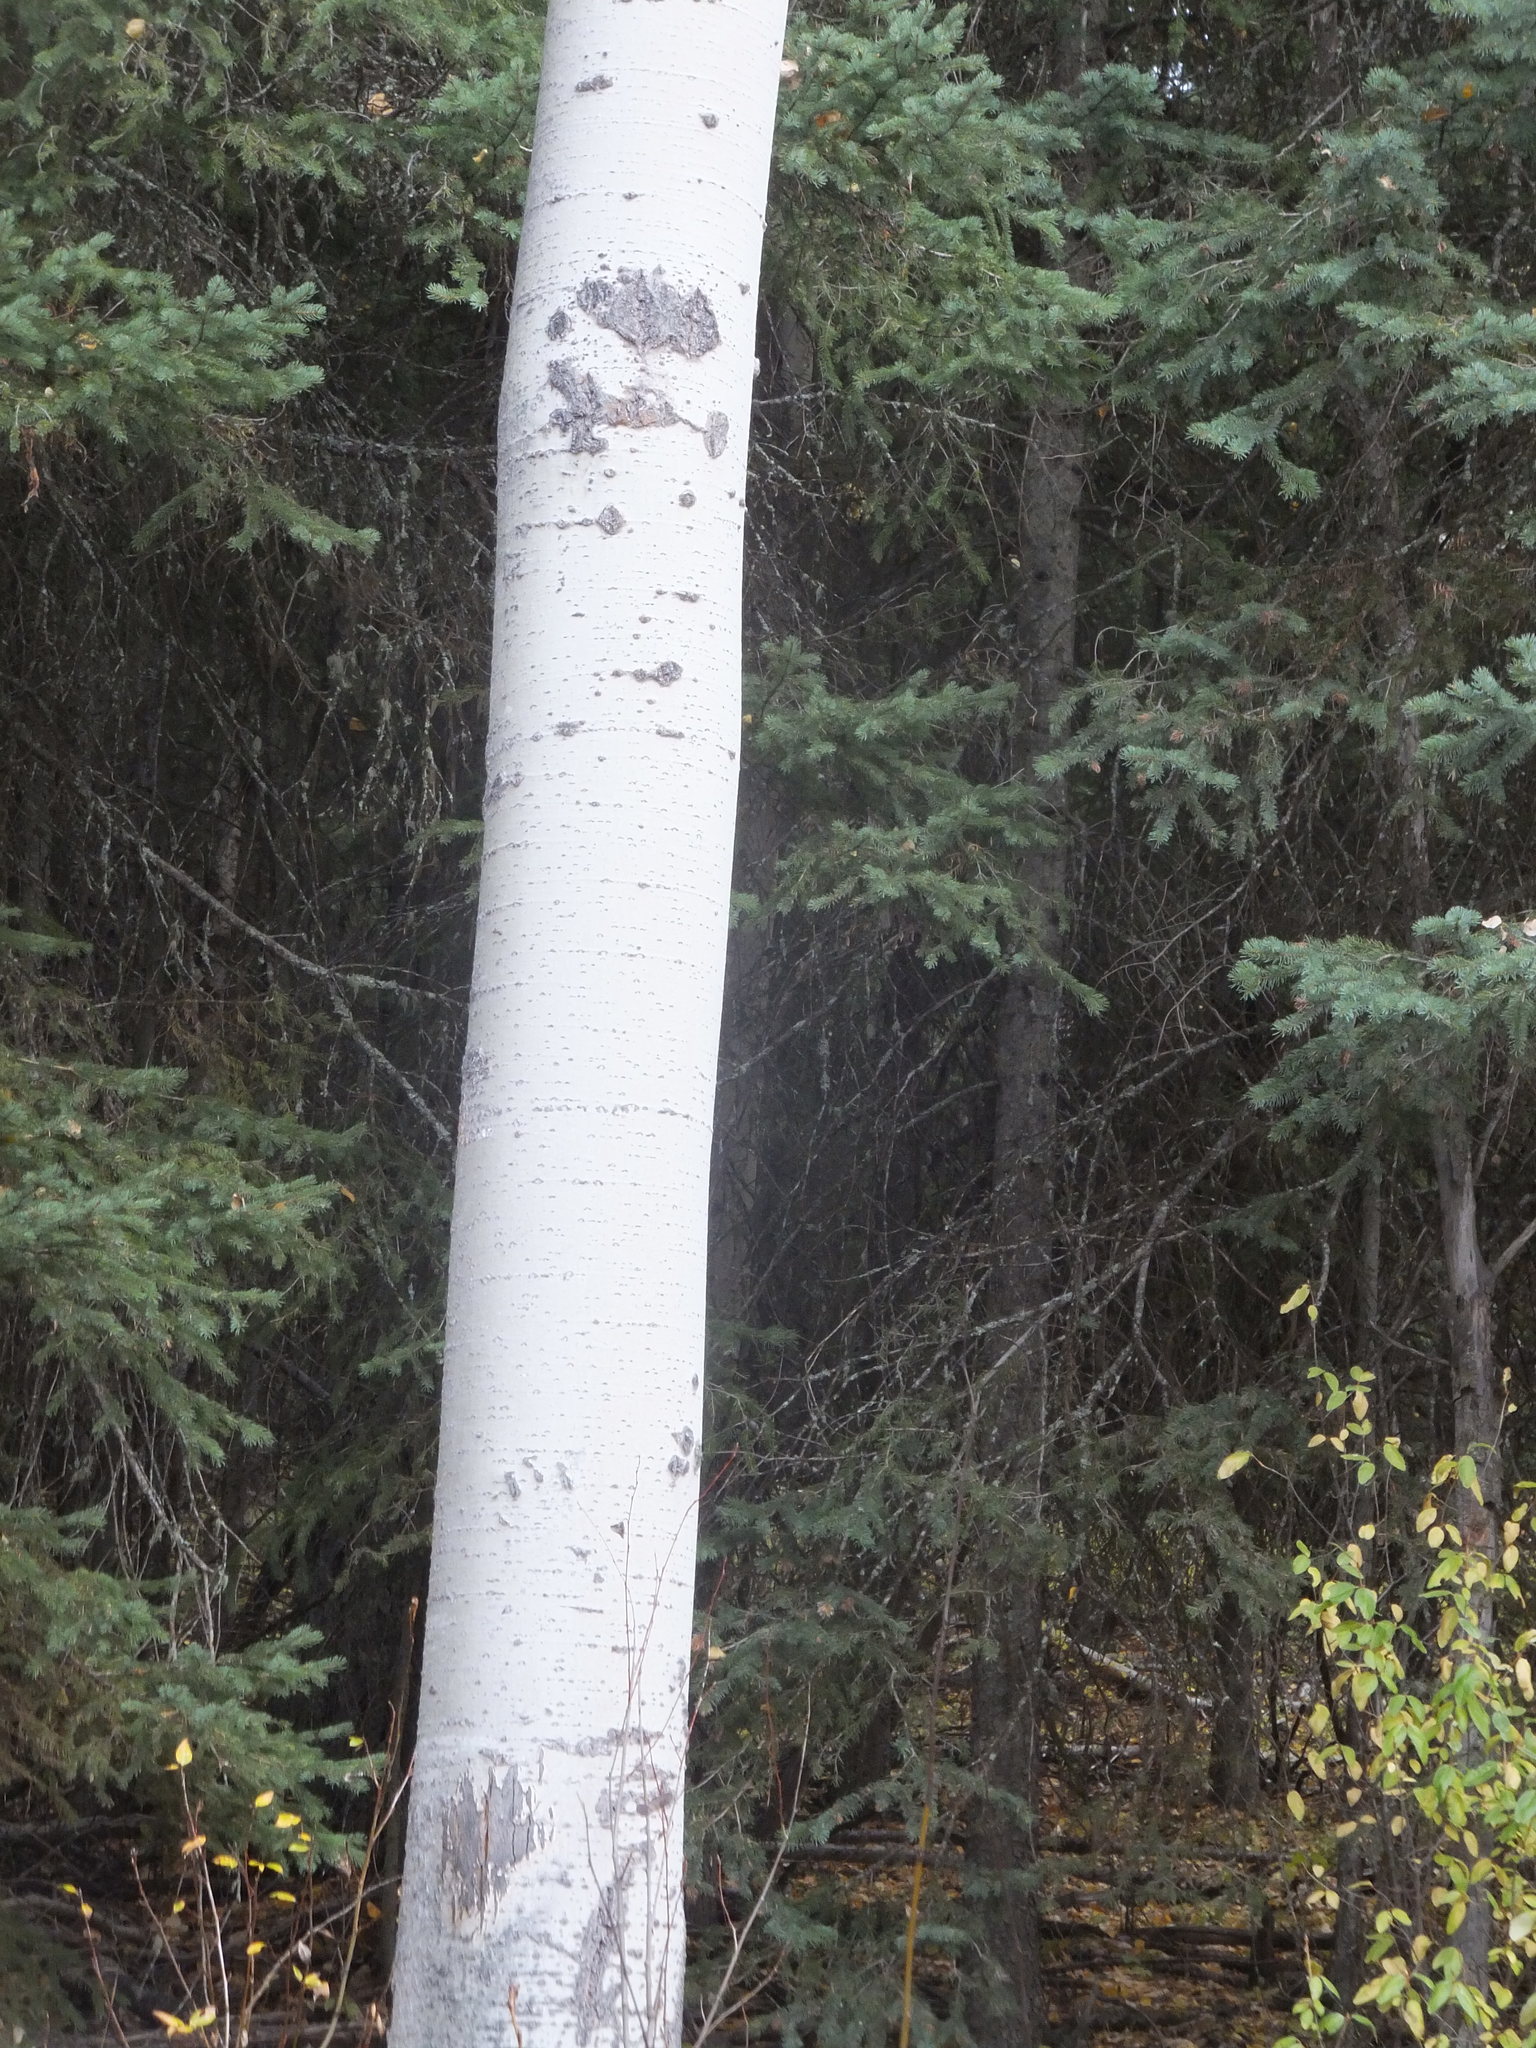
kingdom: Plantae
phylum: Tracheophyta
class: Magnoliopsida
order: Malpighiales
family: Salicaceae
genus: Populus
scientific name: Populus tremuloides
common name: Quaking aspen
